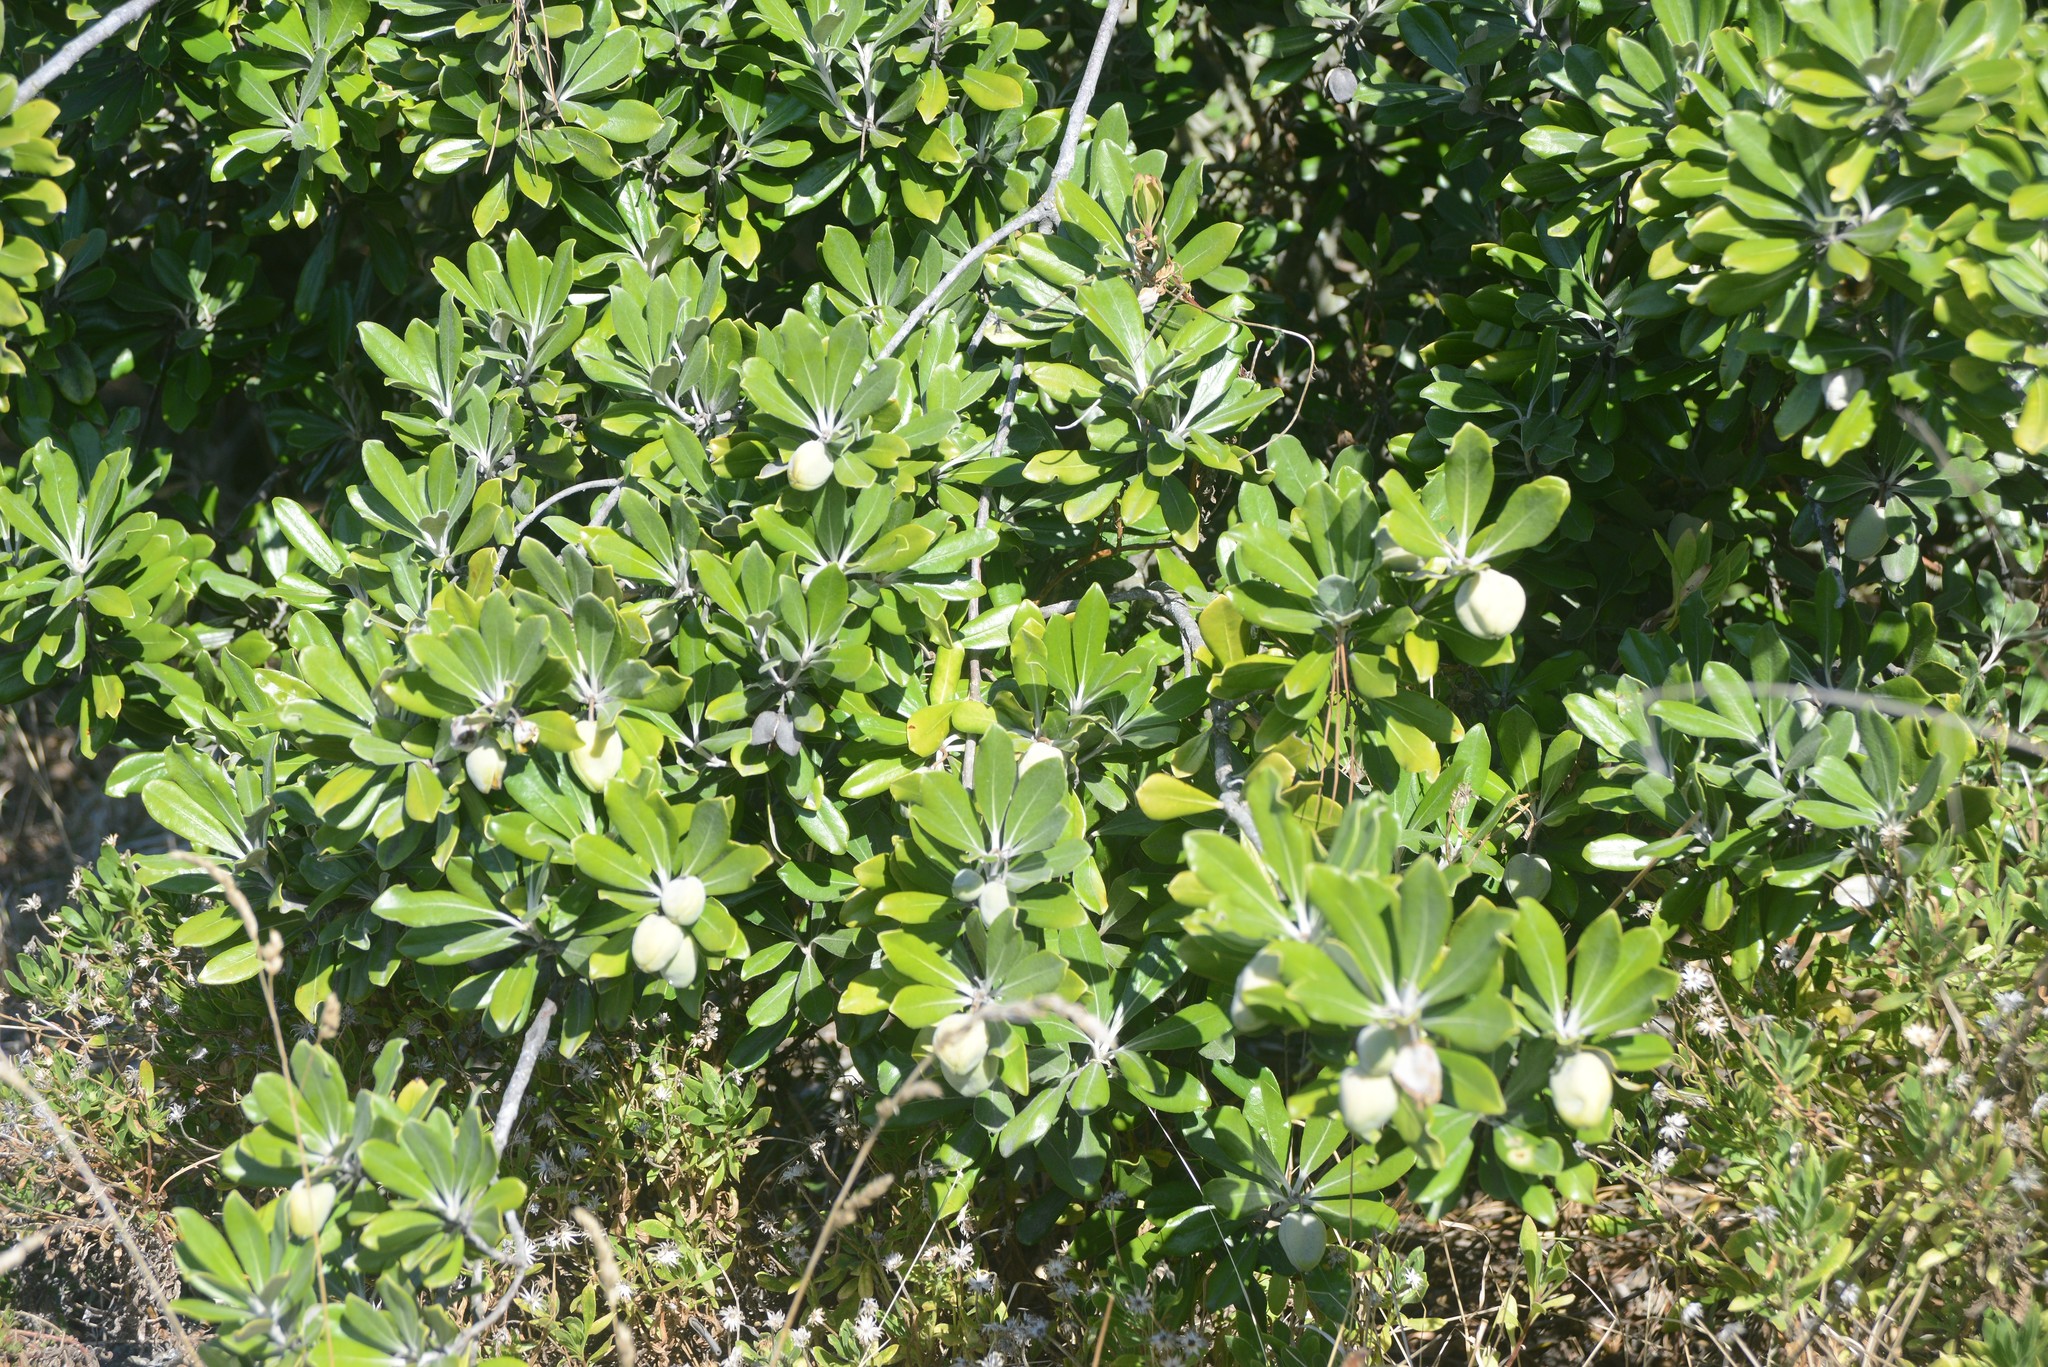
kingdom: Plantae
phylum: Tracheophyta
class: Magnoliopsida
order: Apiales
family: Pittosporaceae
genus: Pittosporum
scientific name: Pittosporum crassifolium
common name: Karo
